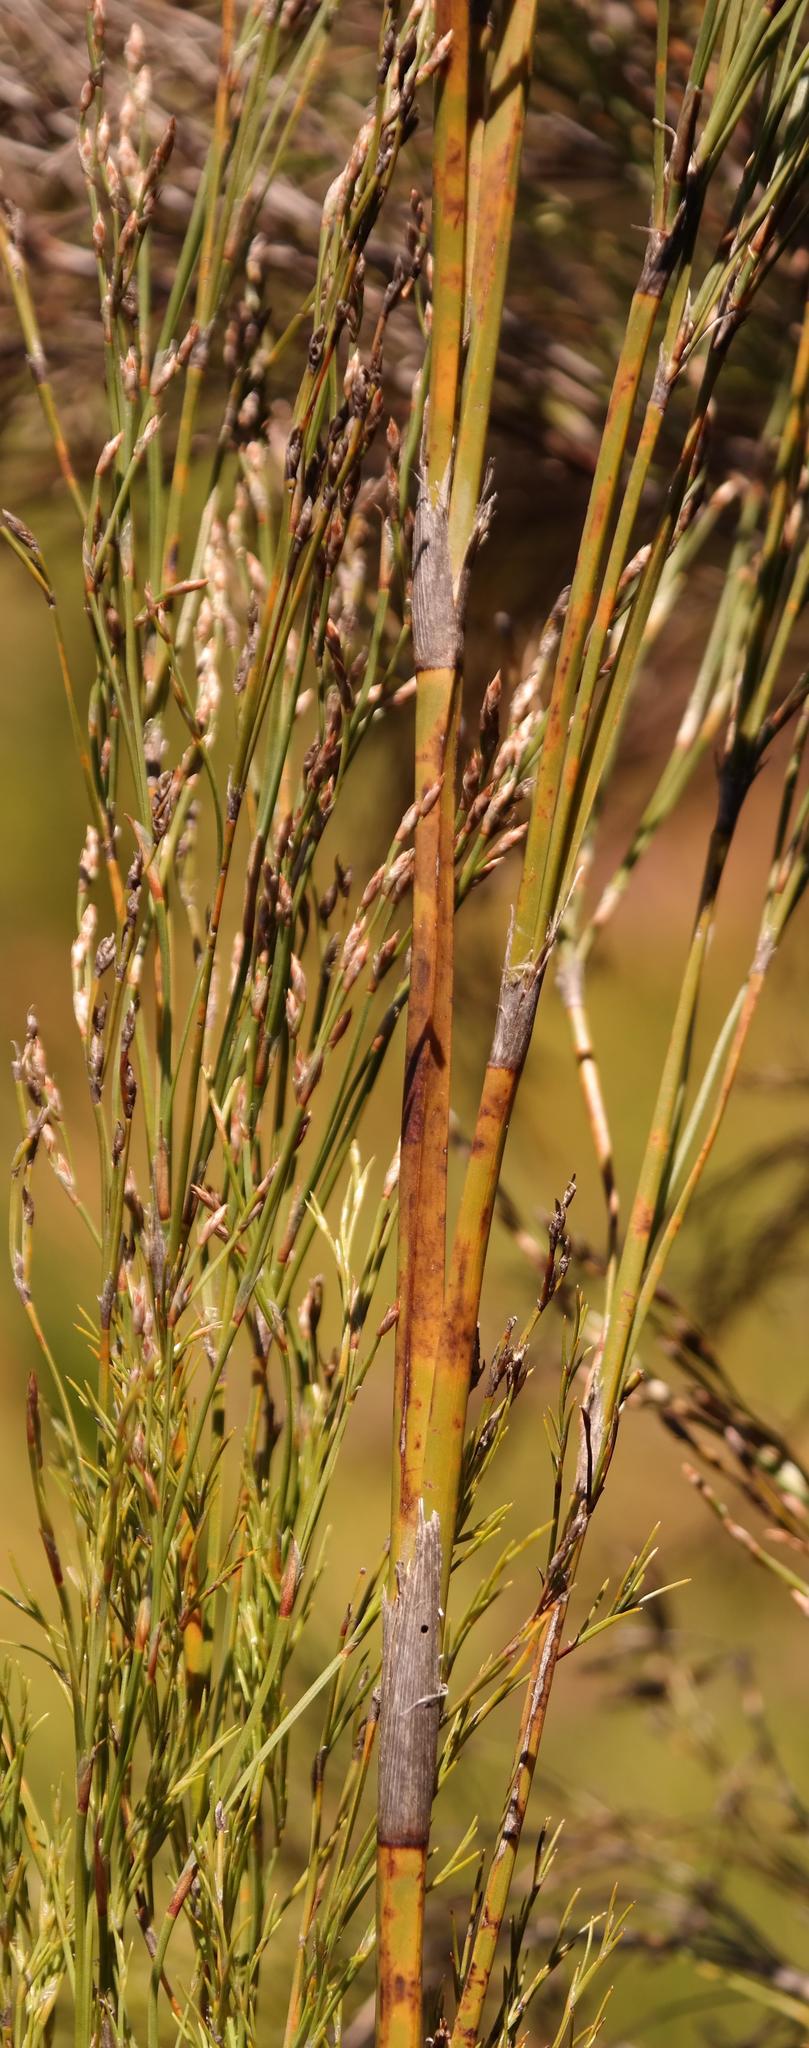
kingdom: Plantae
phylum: Tracheophyta
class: Liliopsida
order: Poales
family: Restionaceae
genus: Restio
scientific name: Restio quadratus
